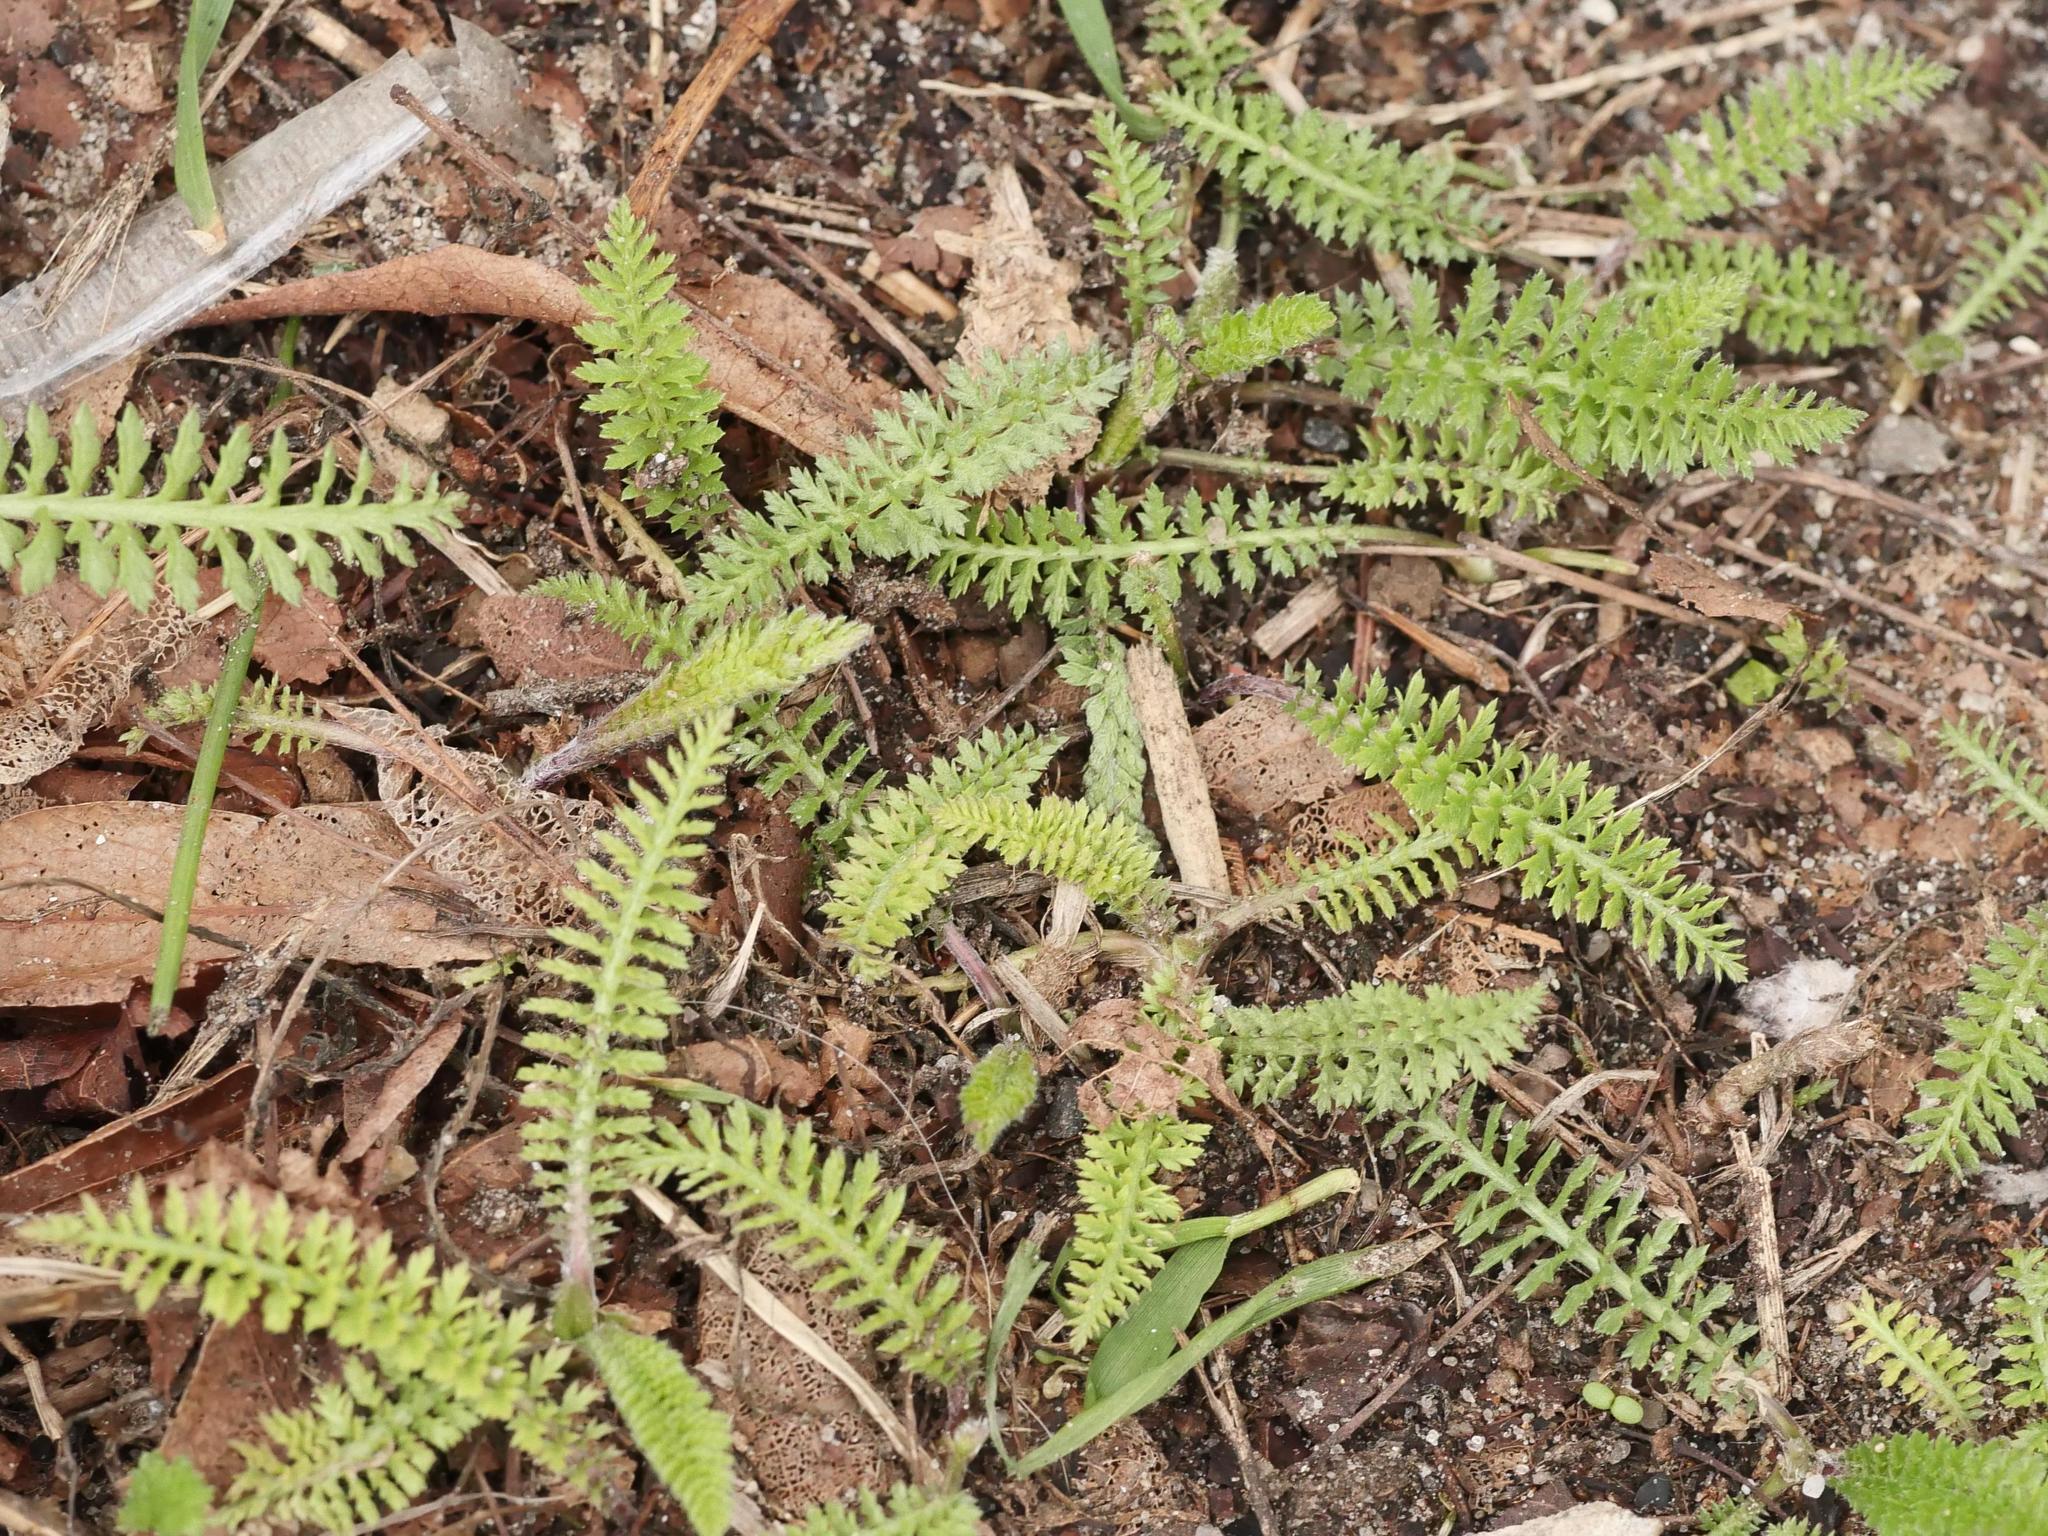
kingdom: Plantae
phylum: Tracheophyta
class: Magnoliopsida
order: Asterales
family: Asteraceae
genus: Achillea
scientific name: Achillea millefolium
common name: Yarrow
